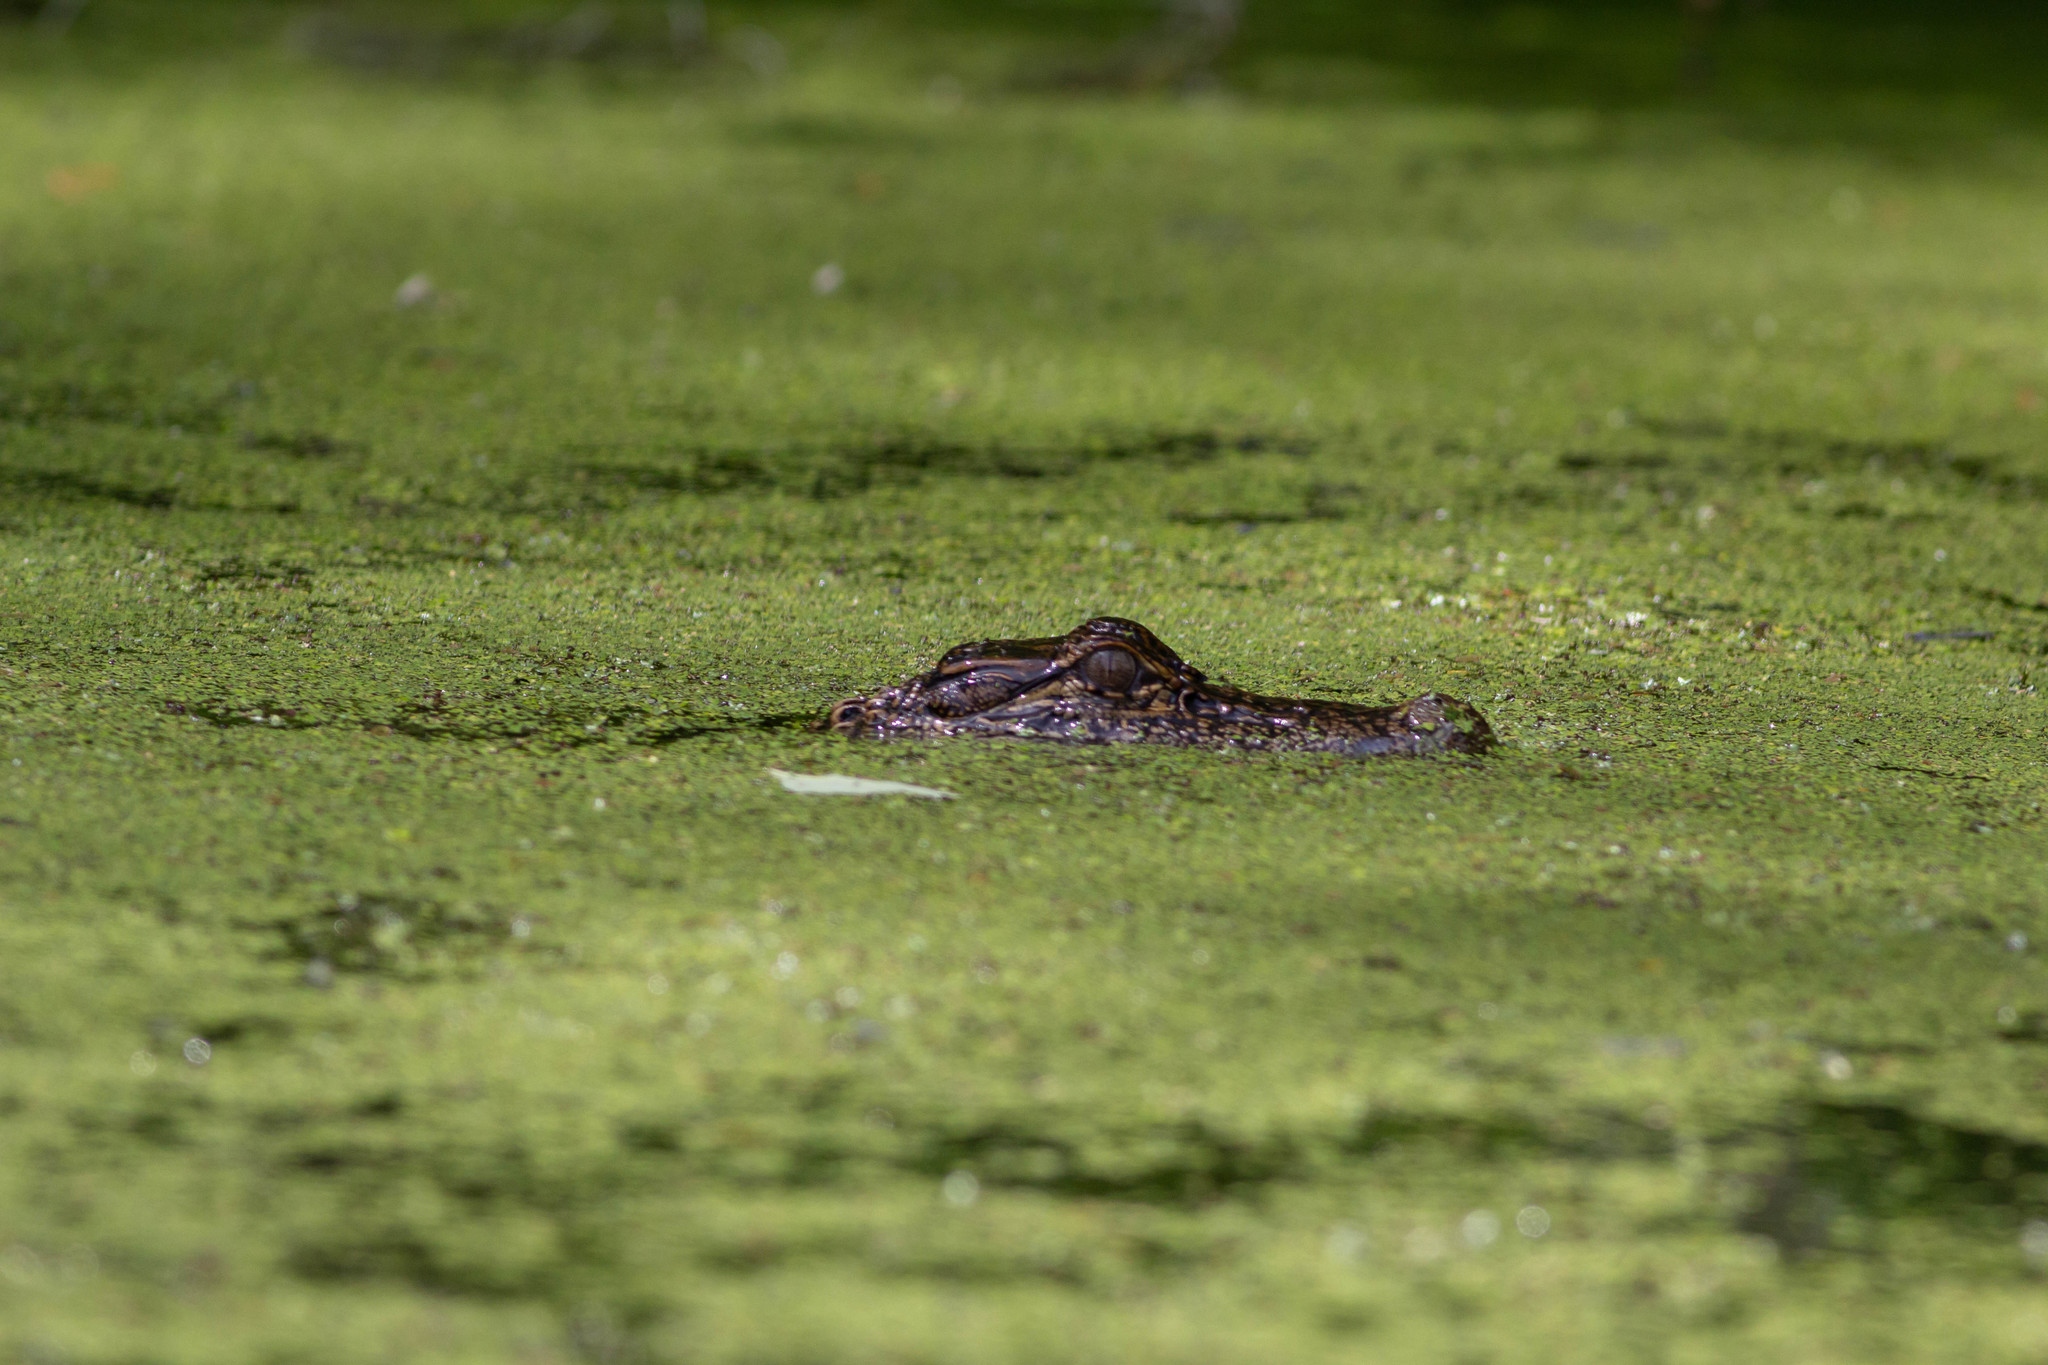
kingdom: Animalia
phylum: Chordata
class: Crocodylia
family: Alligatoridae
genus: Alligator
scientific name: Alligator mississippiensis
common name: American alligator
